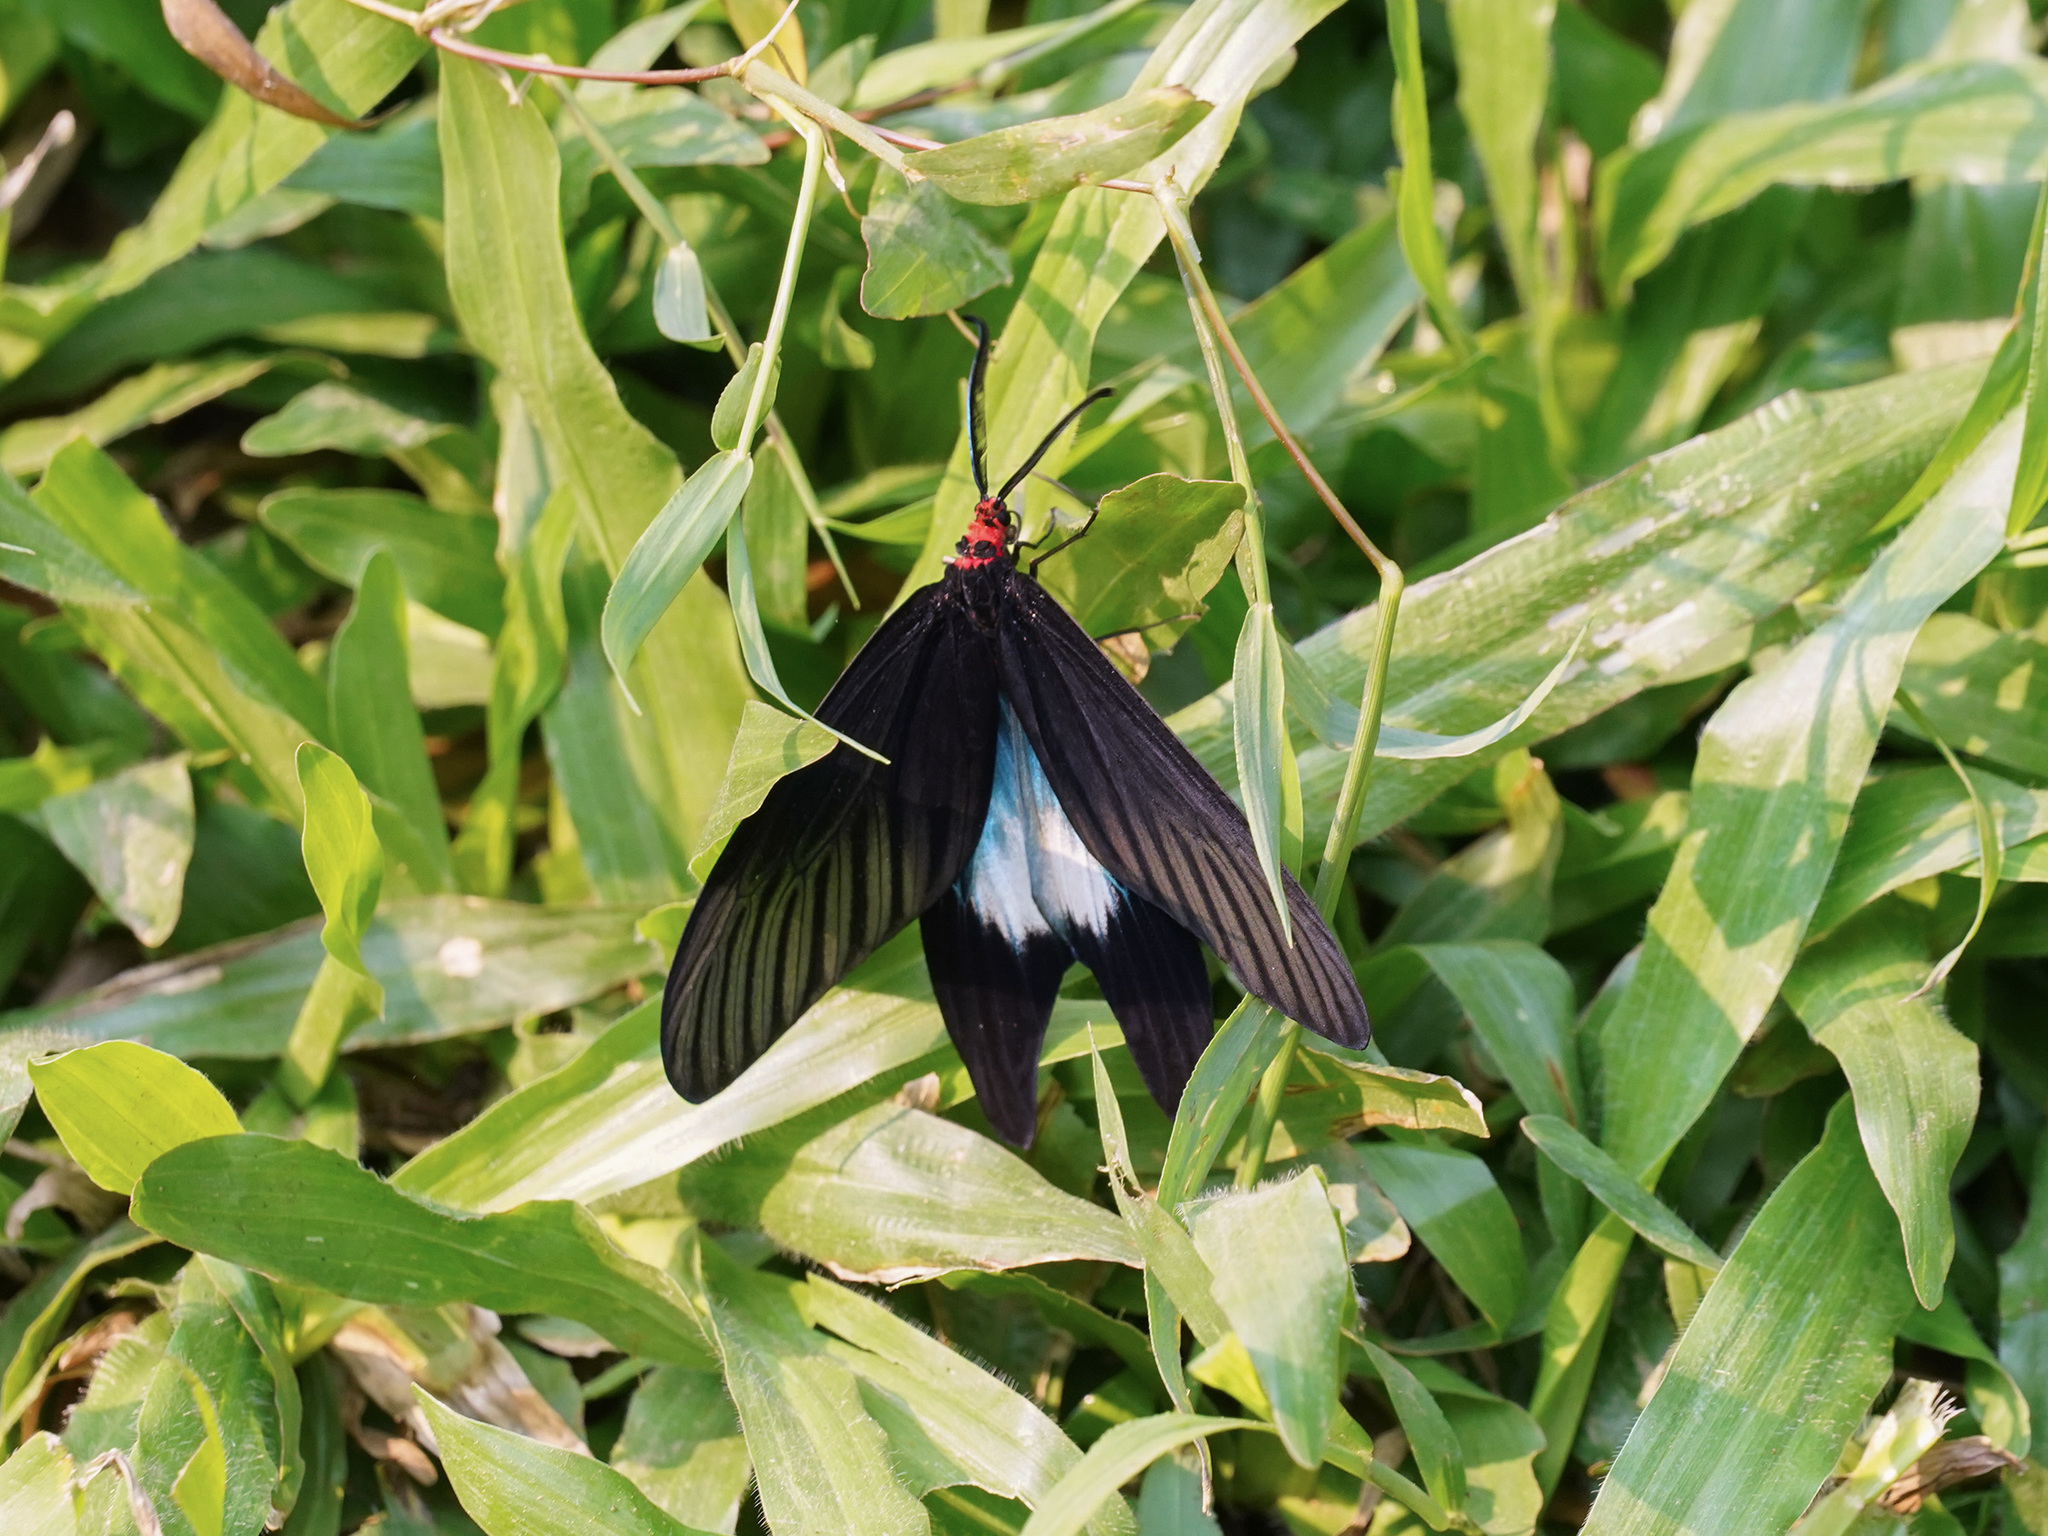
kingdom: Animalia
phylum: Arthropoda
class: Insecta
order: Lepidoptera
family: Zygaenidae
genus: Histia
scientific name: Histia flabellicornis
